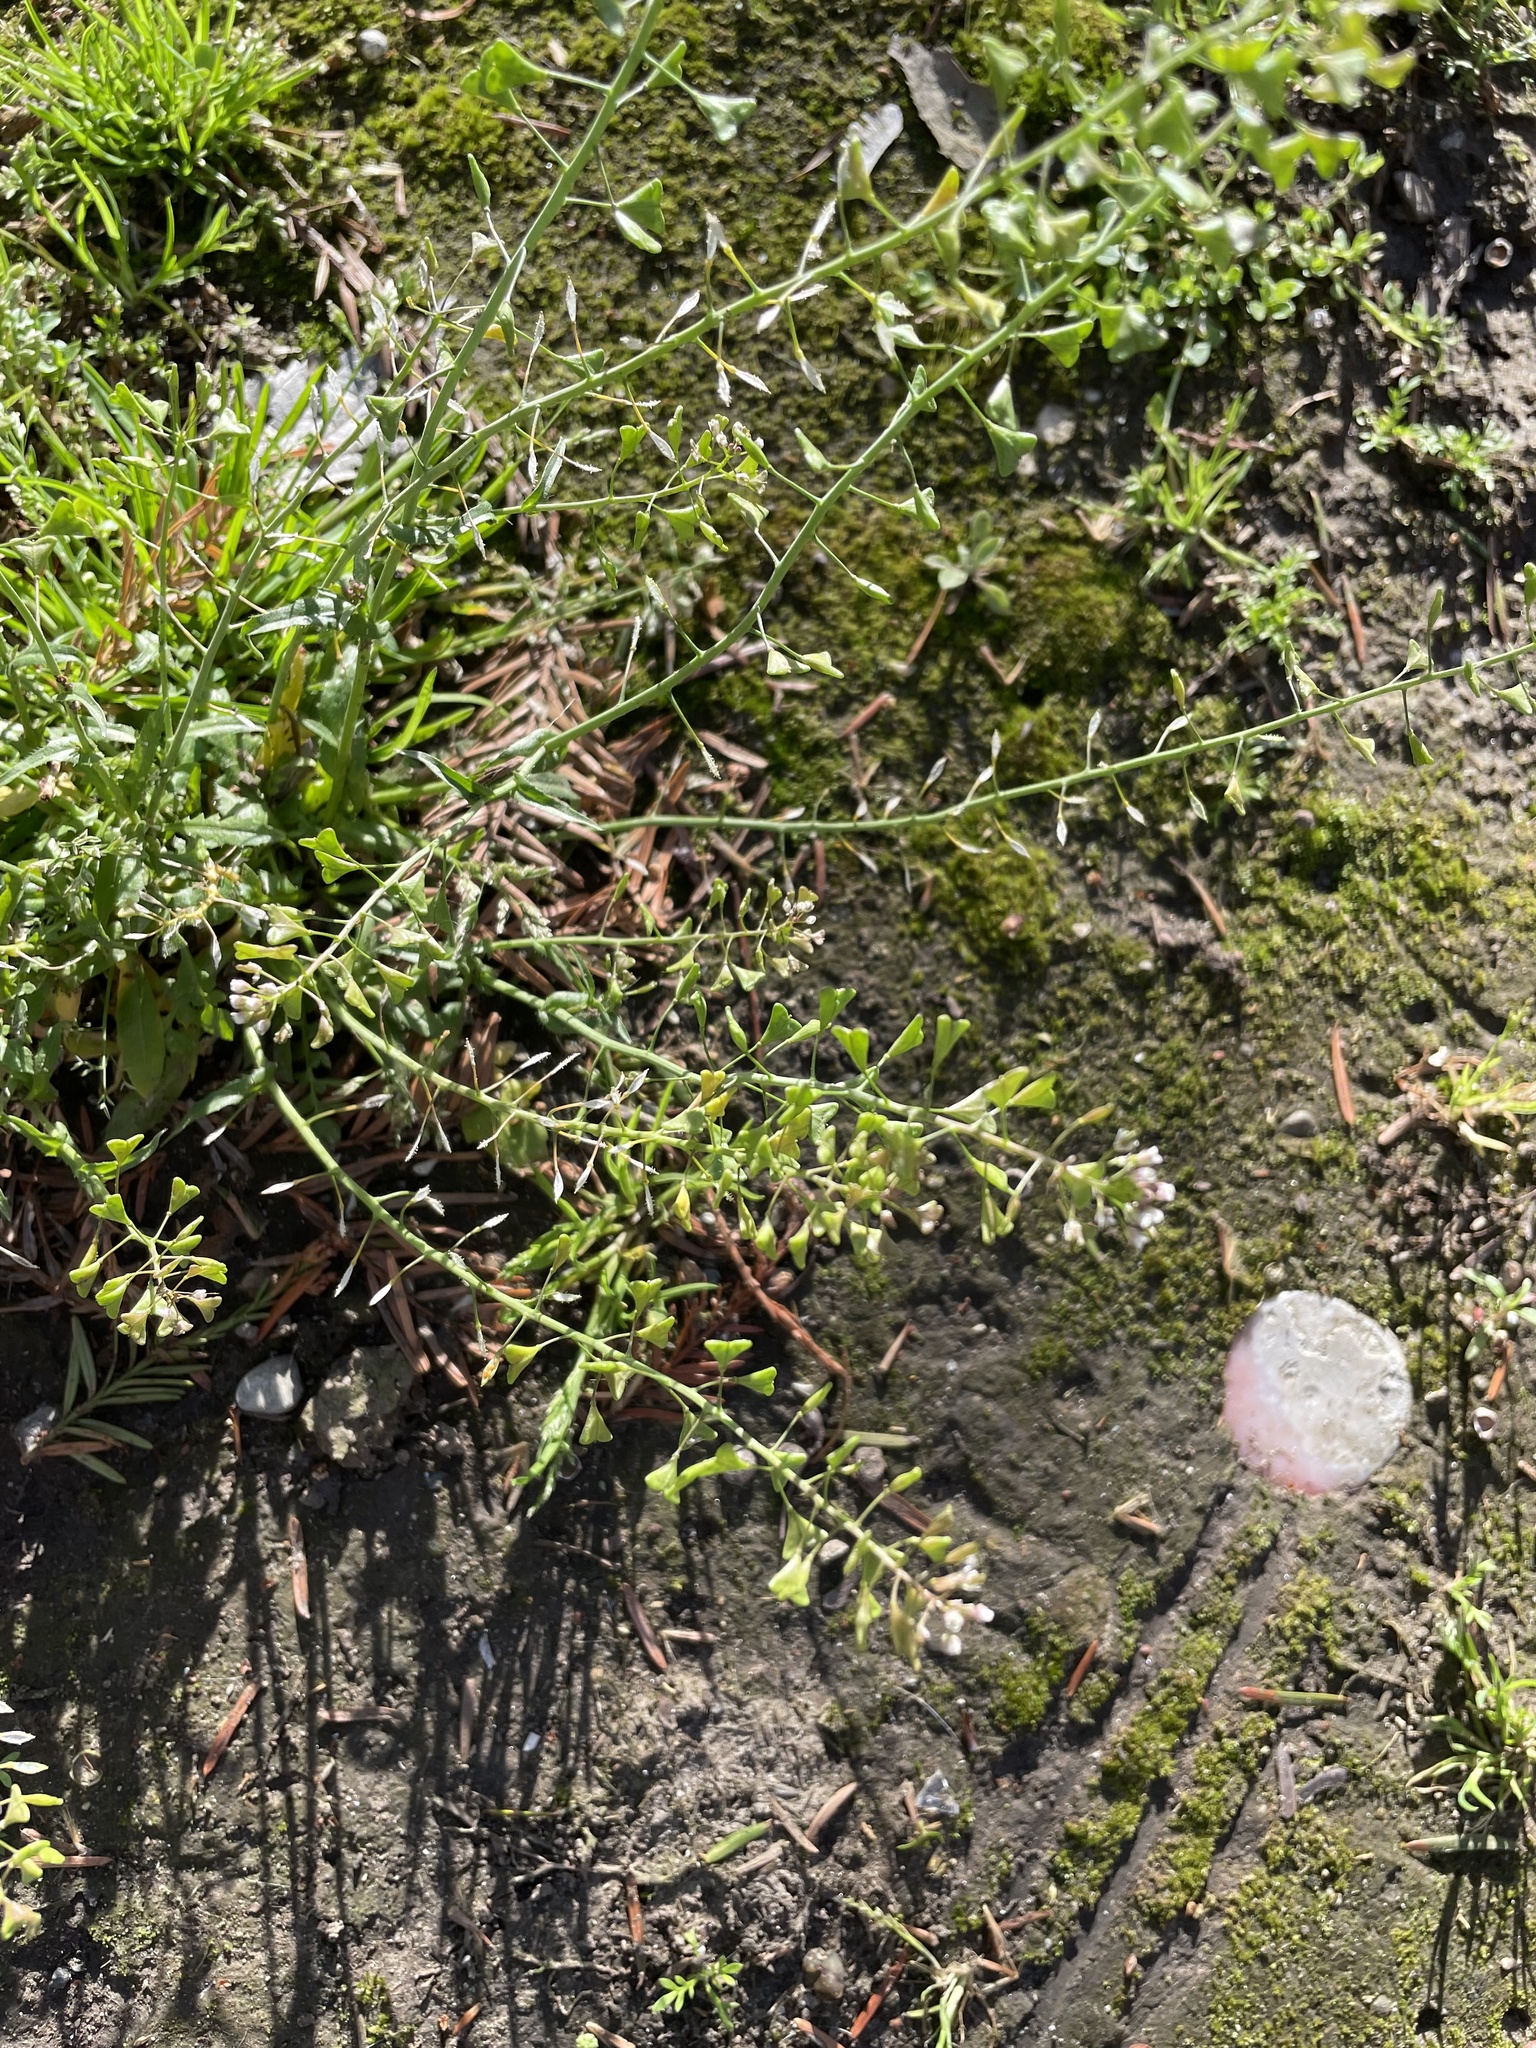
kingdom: Plantae
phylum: Tracheophyta
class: Magnoliopsida
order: Brassicales
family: Brassicaceae
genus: Capsella
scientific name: Capsella bursa-pastoris
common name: Shepherd's purse
